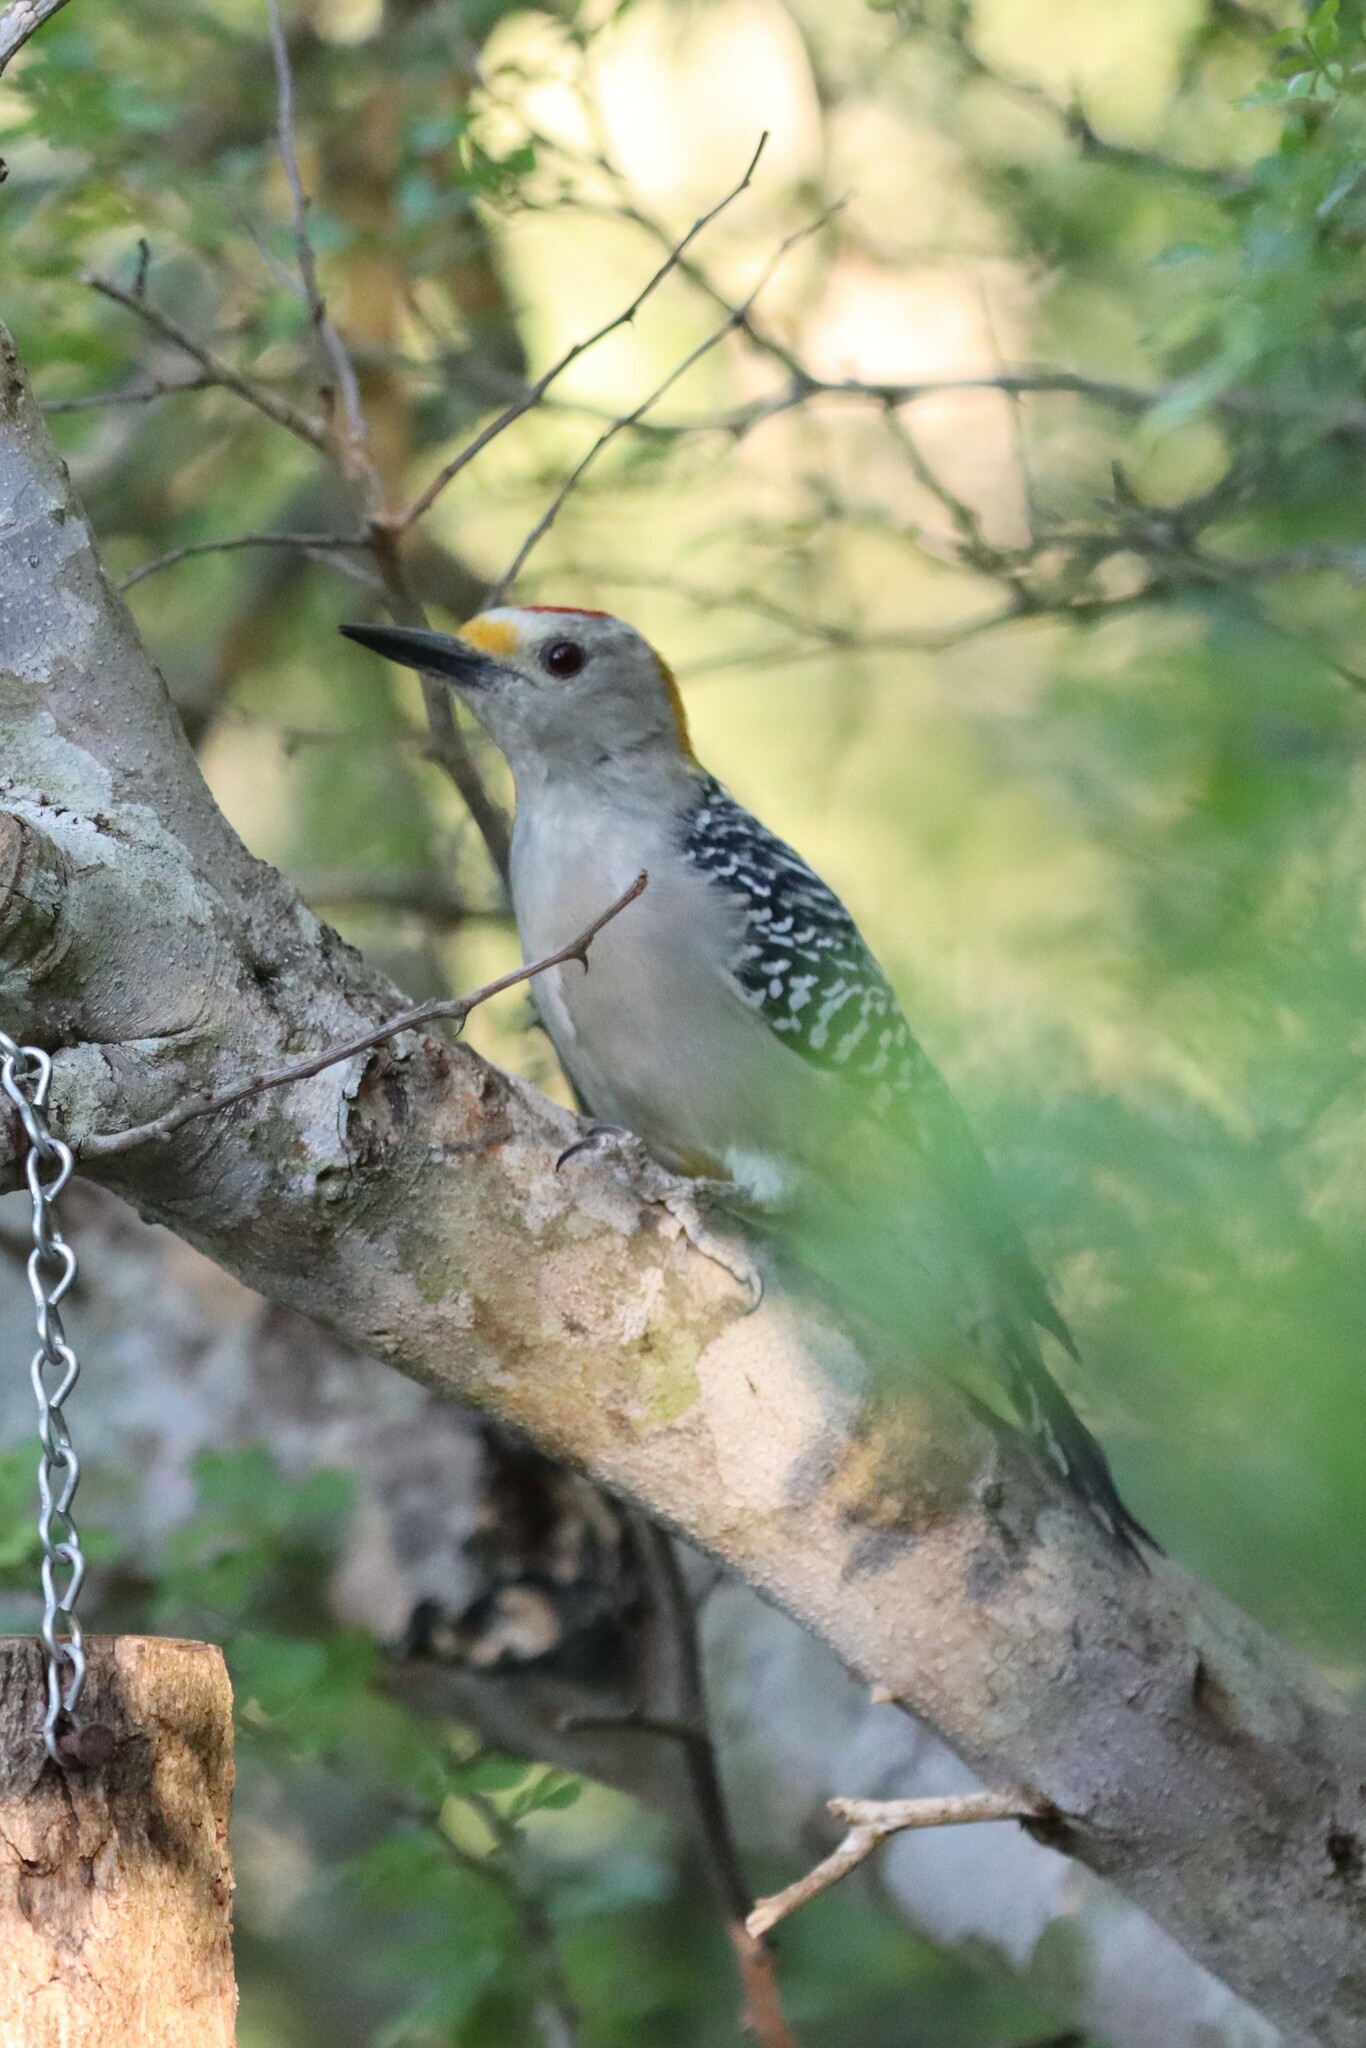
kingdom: Animalia
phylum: Chordata
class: Aves
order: Piciformes
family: Picidae
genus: Melanerpes
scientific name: Melanerpes aurifrons
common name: Golden-fronted woodpecker
